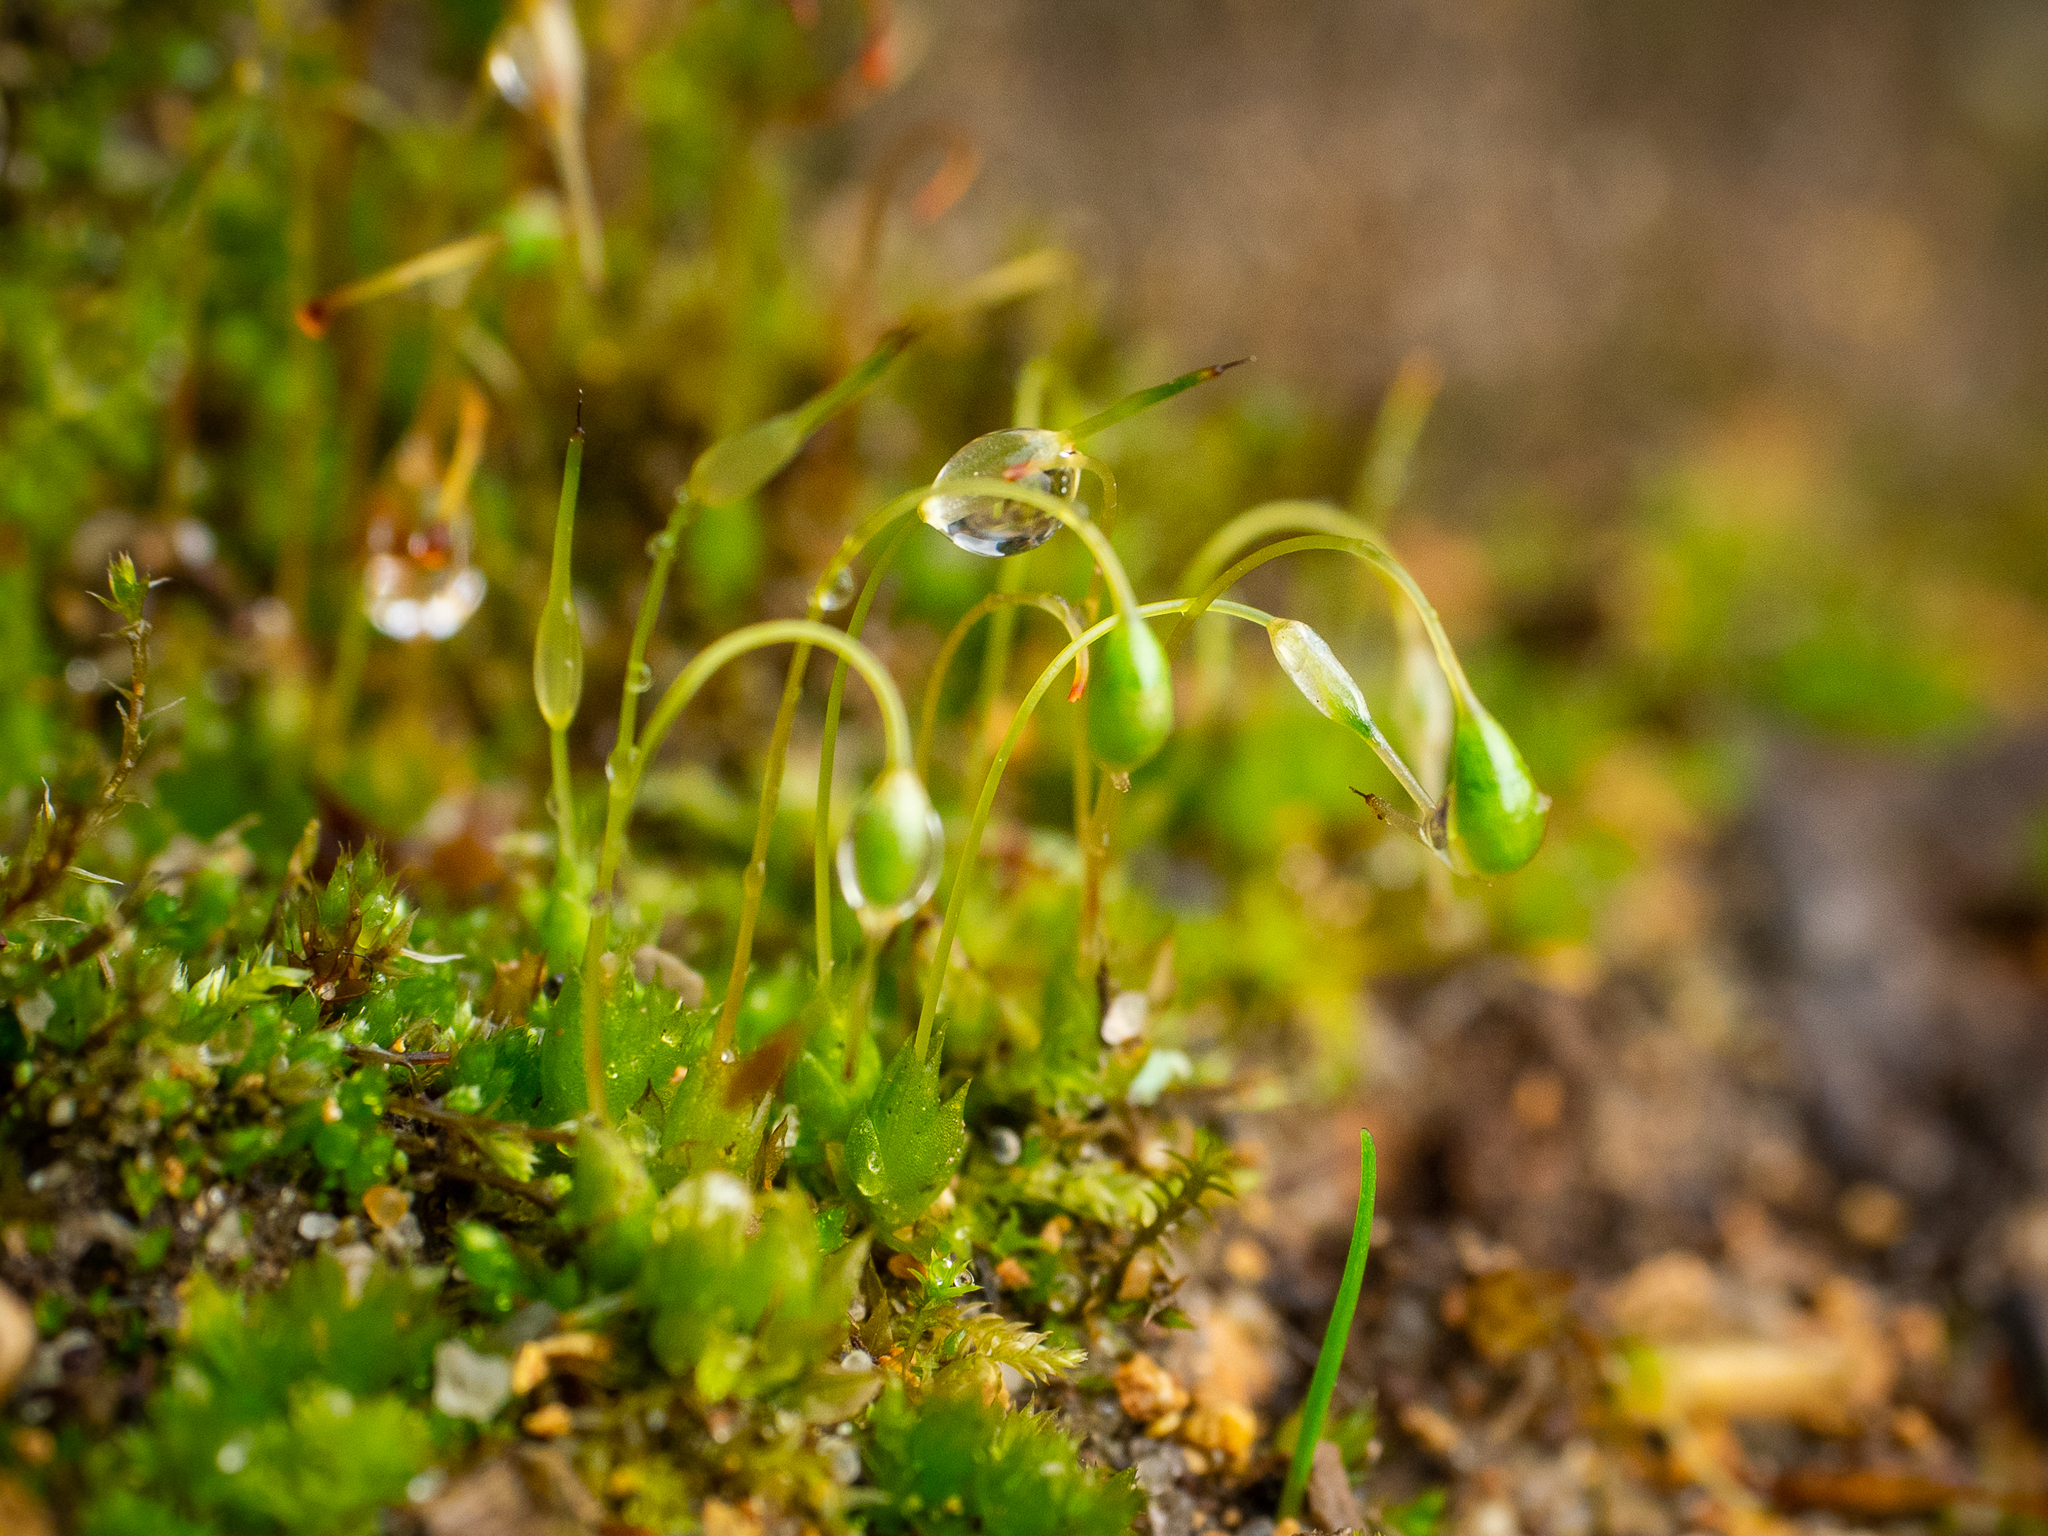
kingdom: Plantae
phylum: Bryophyta
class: Bryopsida
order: Funariales
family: Funariaceae
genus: Funaria
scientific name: Funaria hygrometrica
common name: Common cord moss
